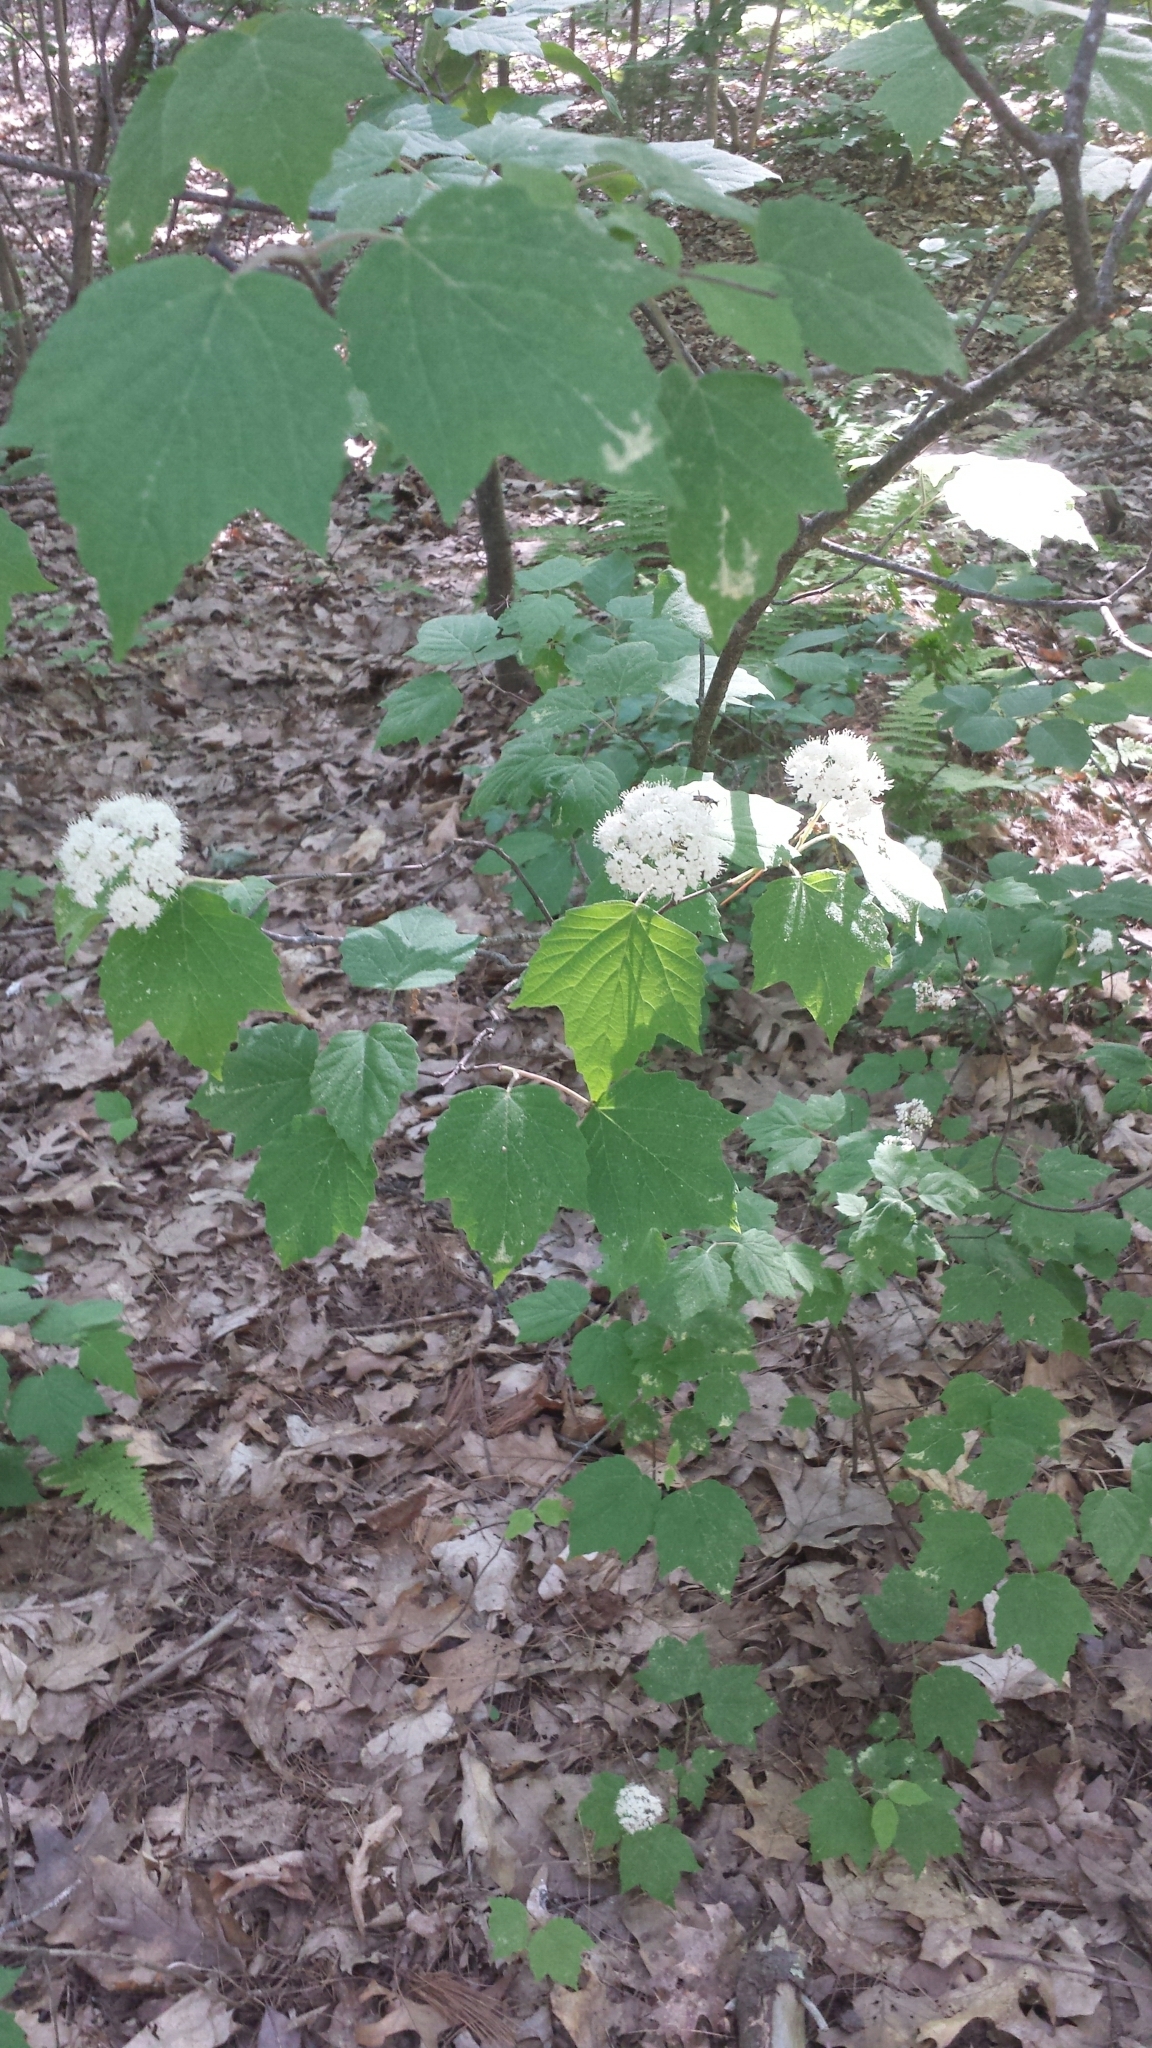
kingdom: Plantae
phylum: Tracheophyta
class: Magnoliopsida
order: Dipsacales
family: Viburnaceae
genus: Viburnum
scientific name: Viburnum acerifolium
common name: Dockmackie
